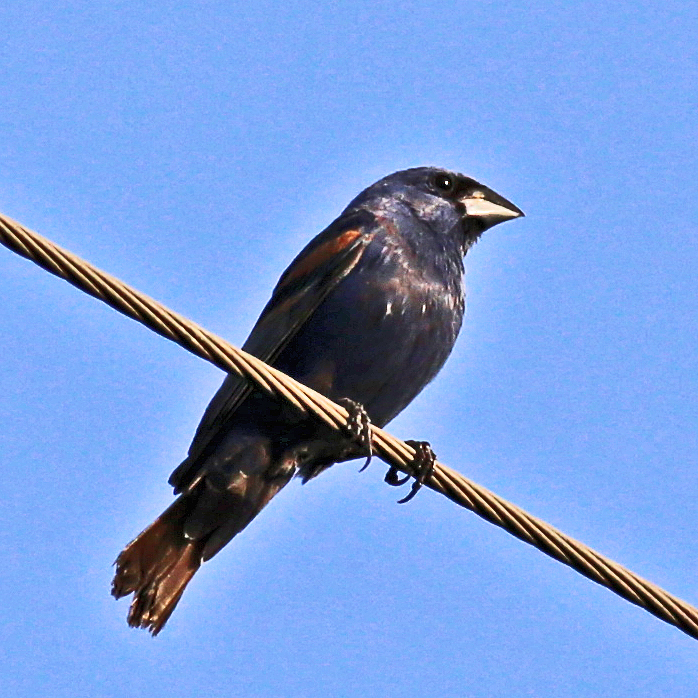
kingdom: Animalia
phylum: Chordata
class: Aves
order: Passeriformes
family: Cardinalidae
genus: Passerina
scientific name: Passerina caerulea
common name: Blue grosbeak
